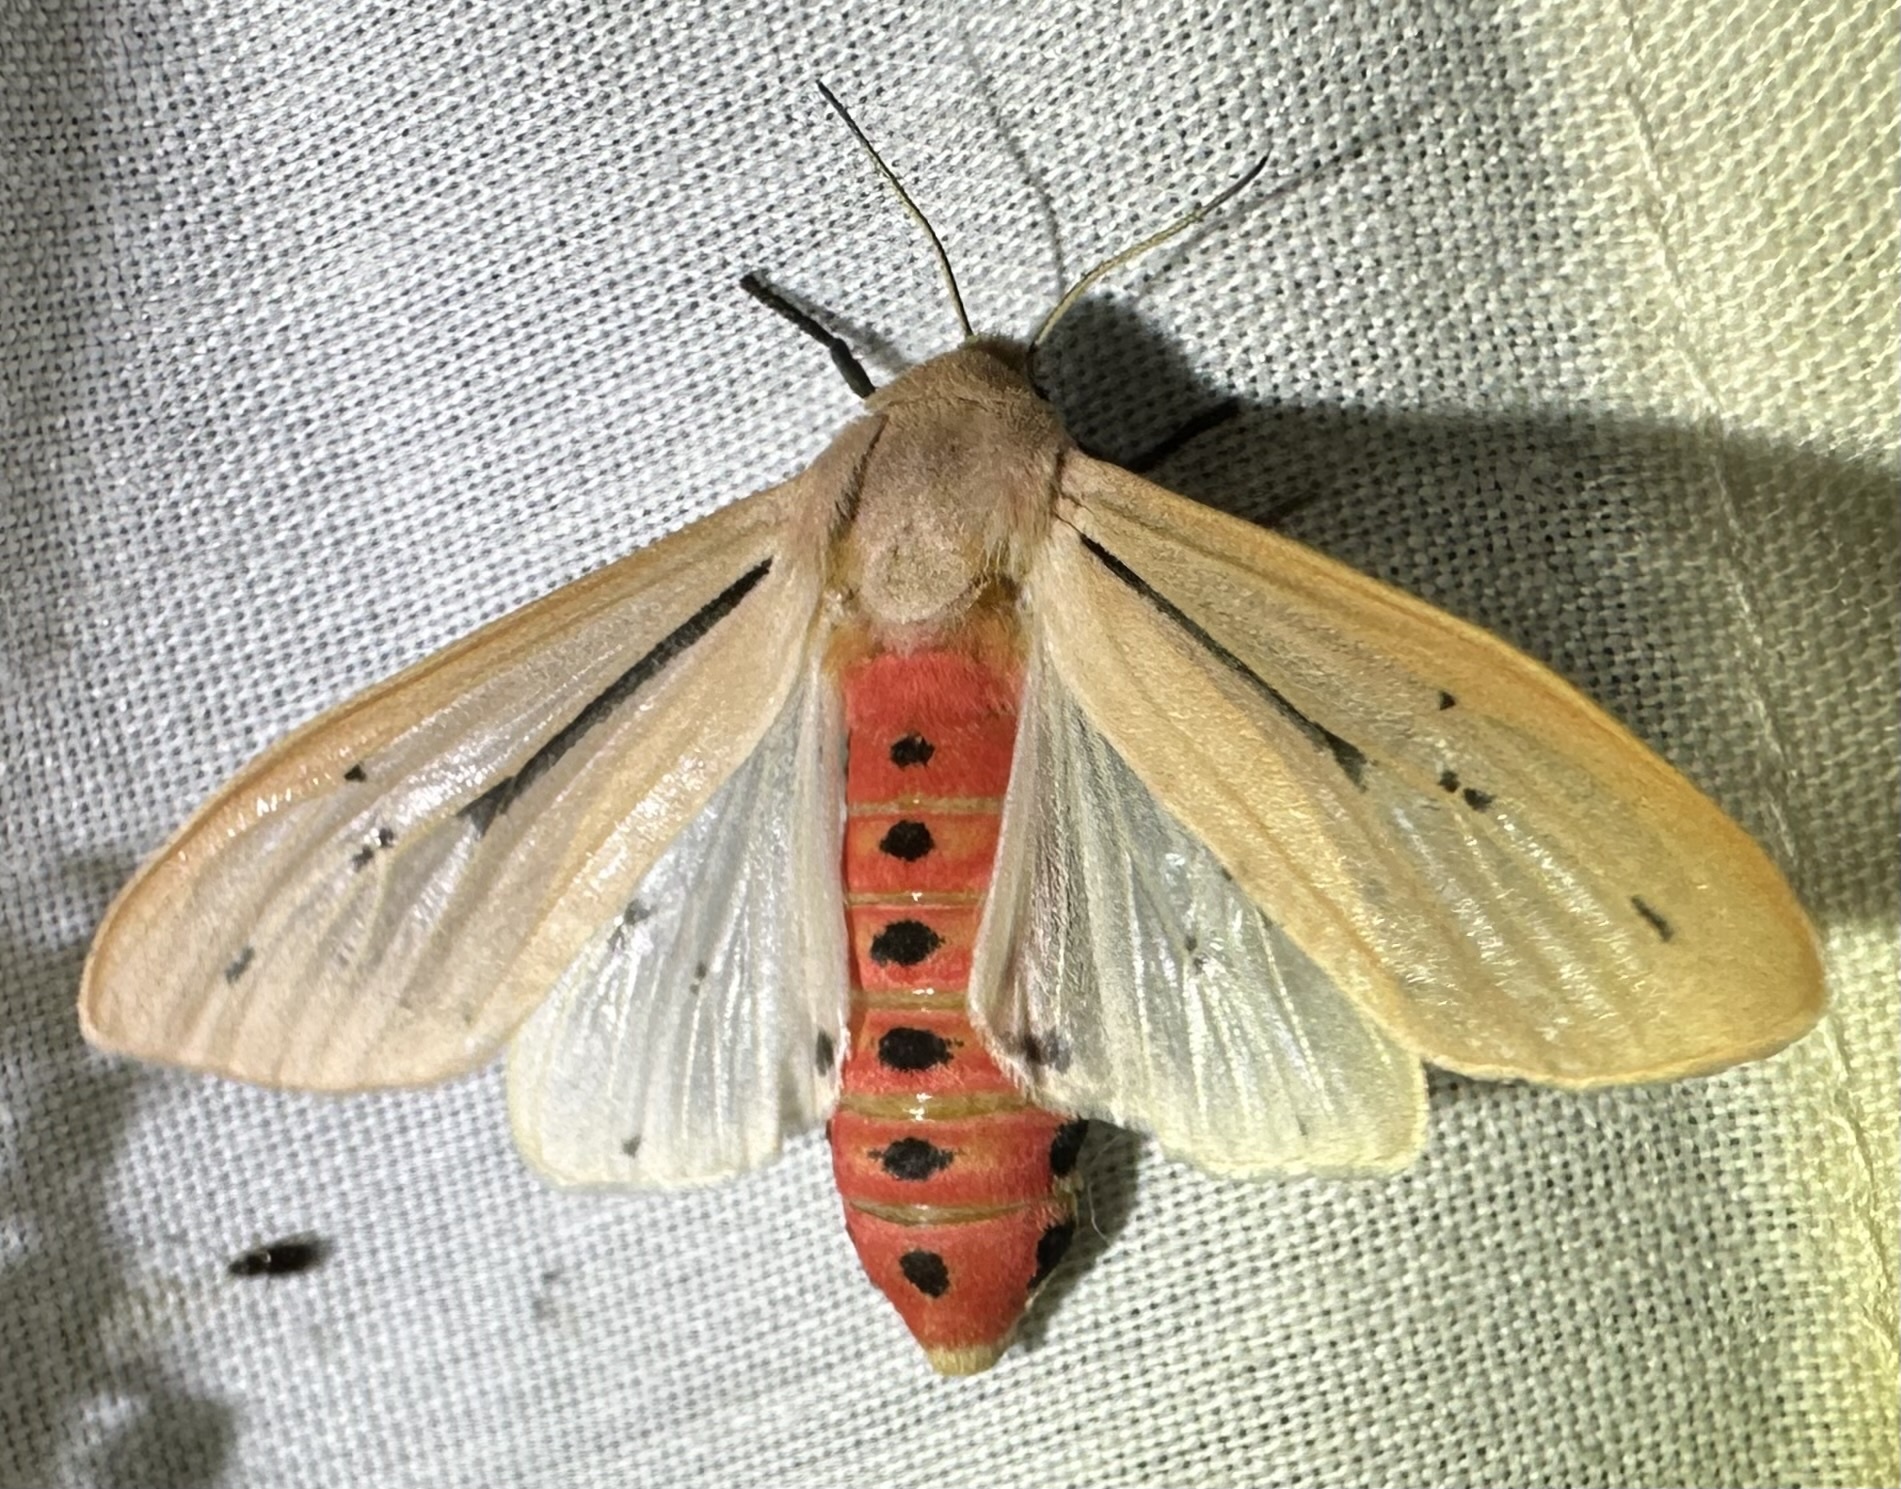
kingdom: Animalia
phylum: Arthropoda
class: Insecta
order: Lepidoptera
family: Erebidae
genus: Creatonotos
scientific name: Creatonotos punctivitta
